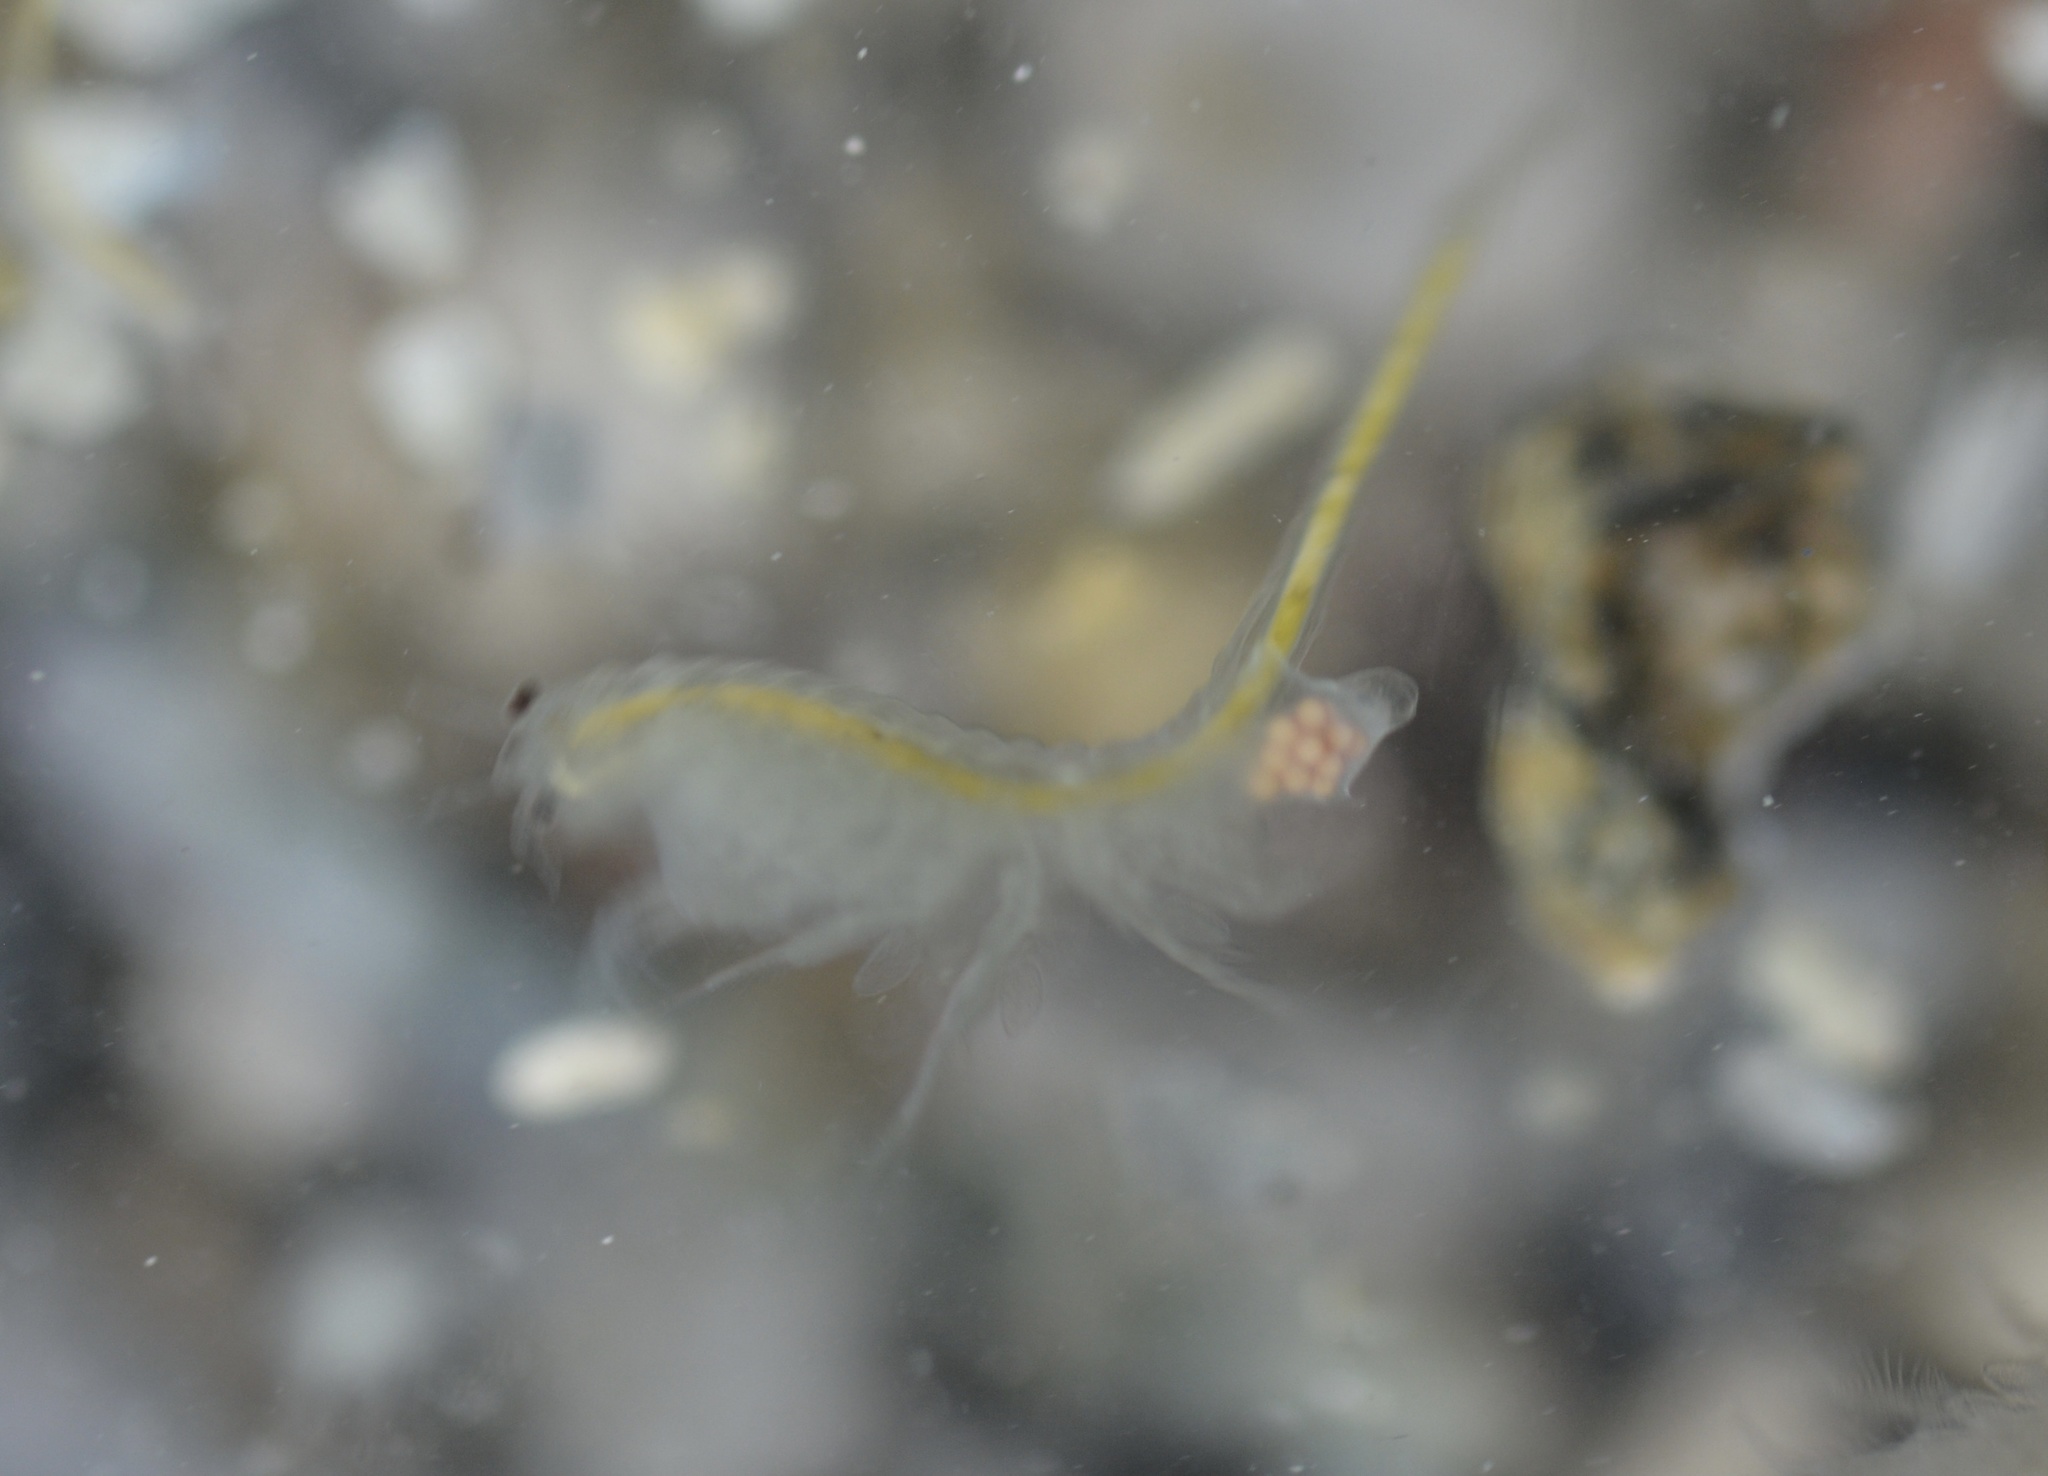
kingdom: Animalia
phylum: Arthropoda
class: Branchiopoda
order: Anostraca
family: Artemiidae
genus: Artemia
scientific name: Artemia monica
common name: Mono lake brine shrimp
